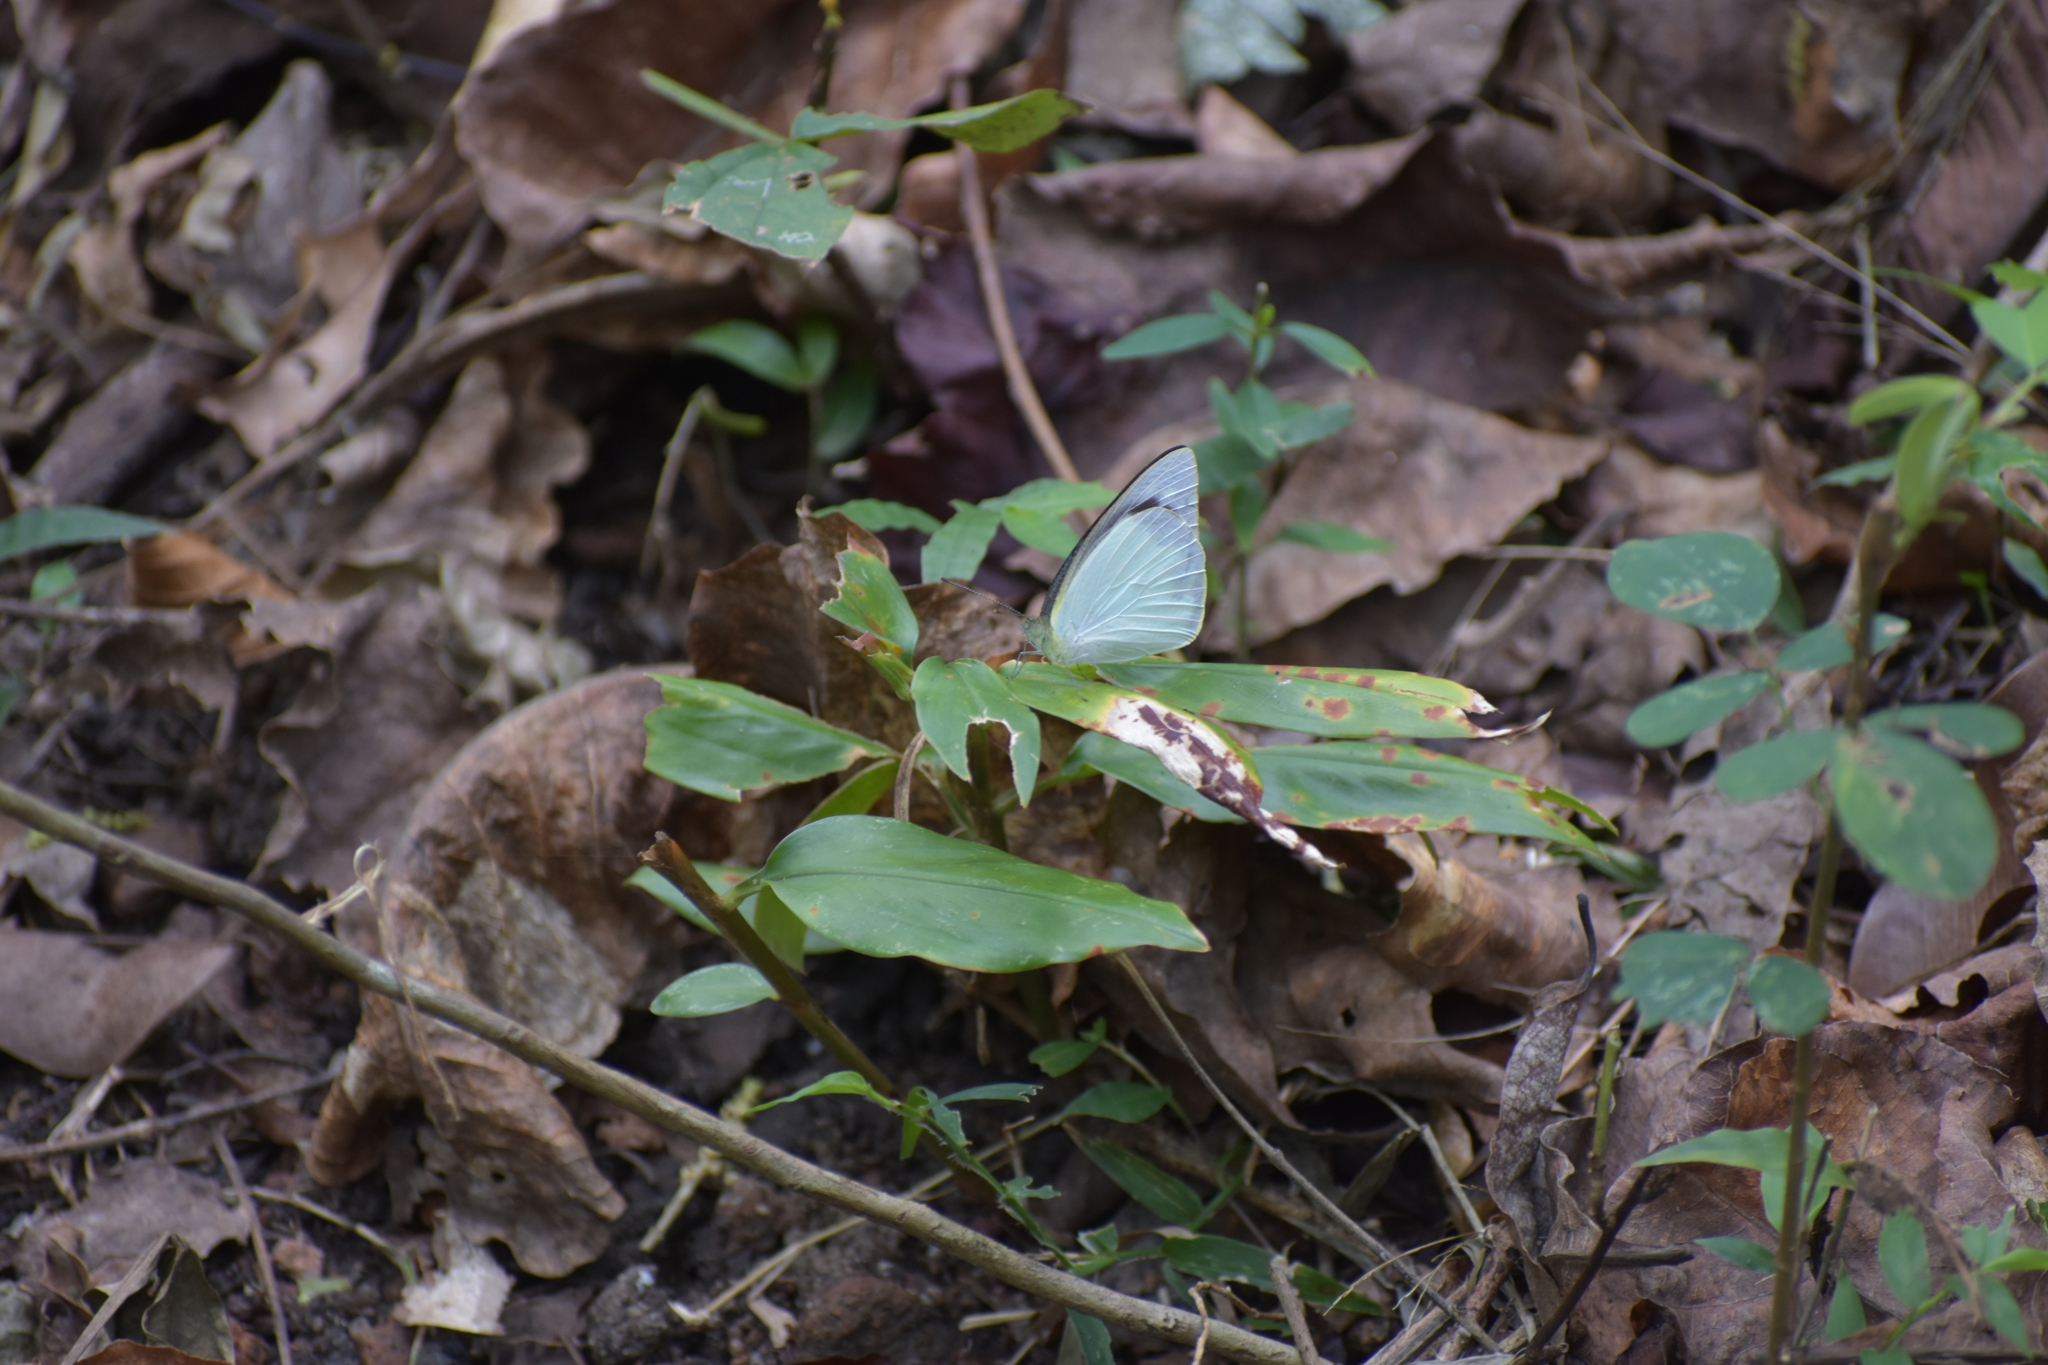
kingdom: Animalia
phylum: Arthropoda
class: Insecta
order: Lepidoptera
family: Pieridae
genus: Appias
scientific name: Appias albina
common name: Common albatross
